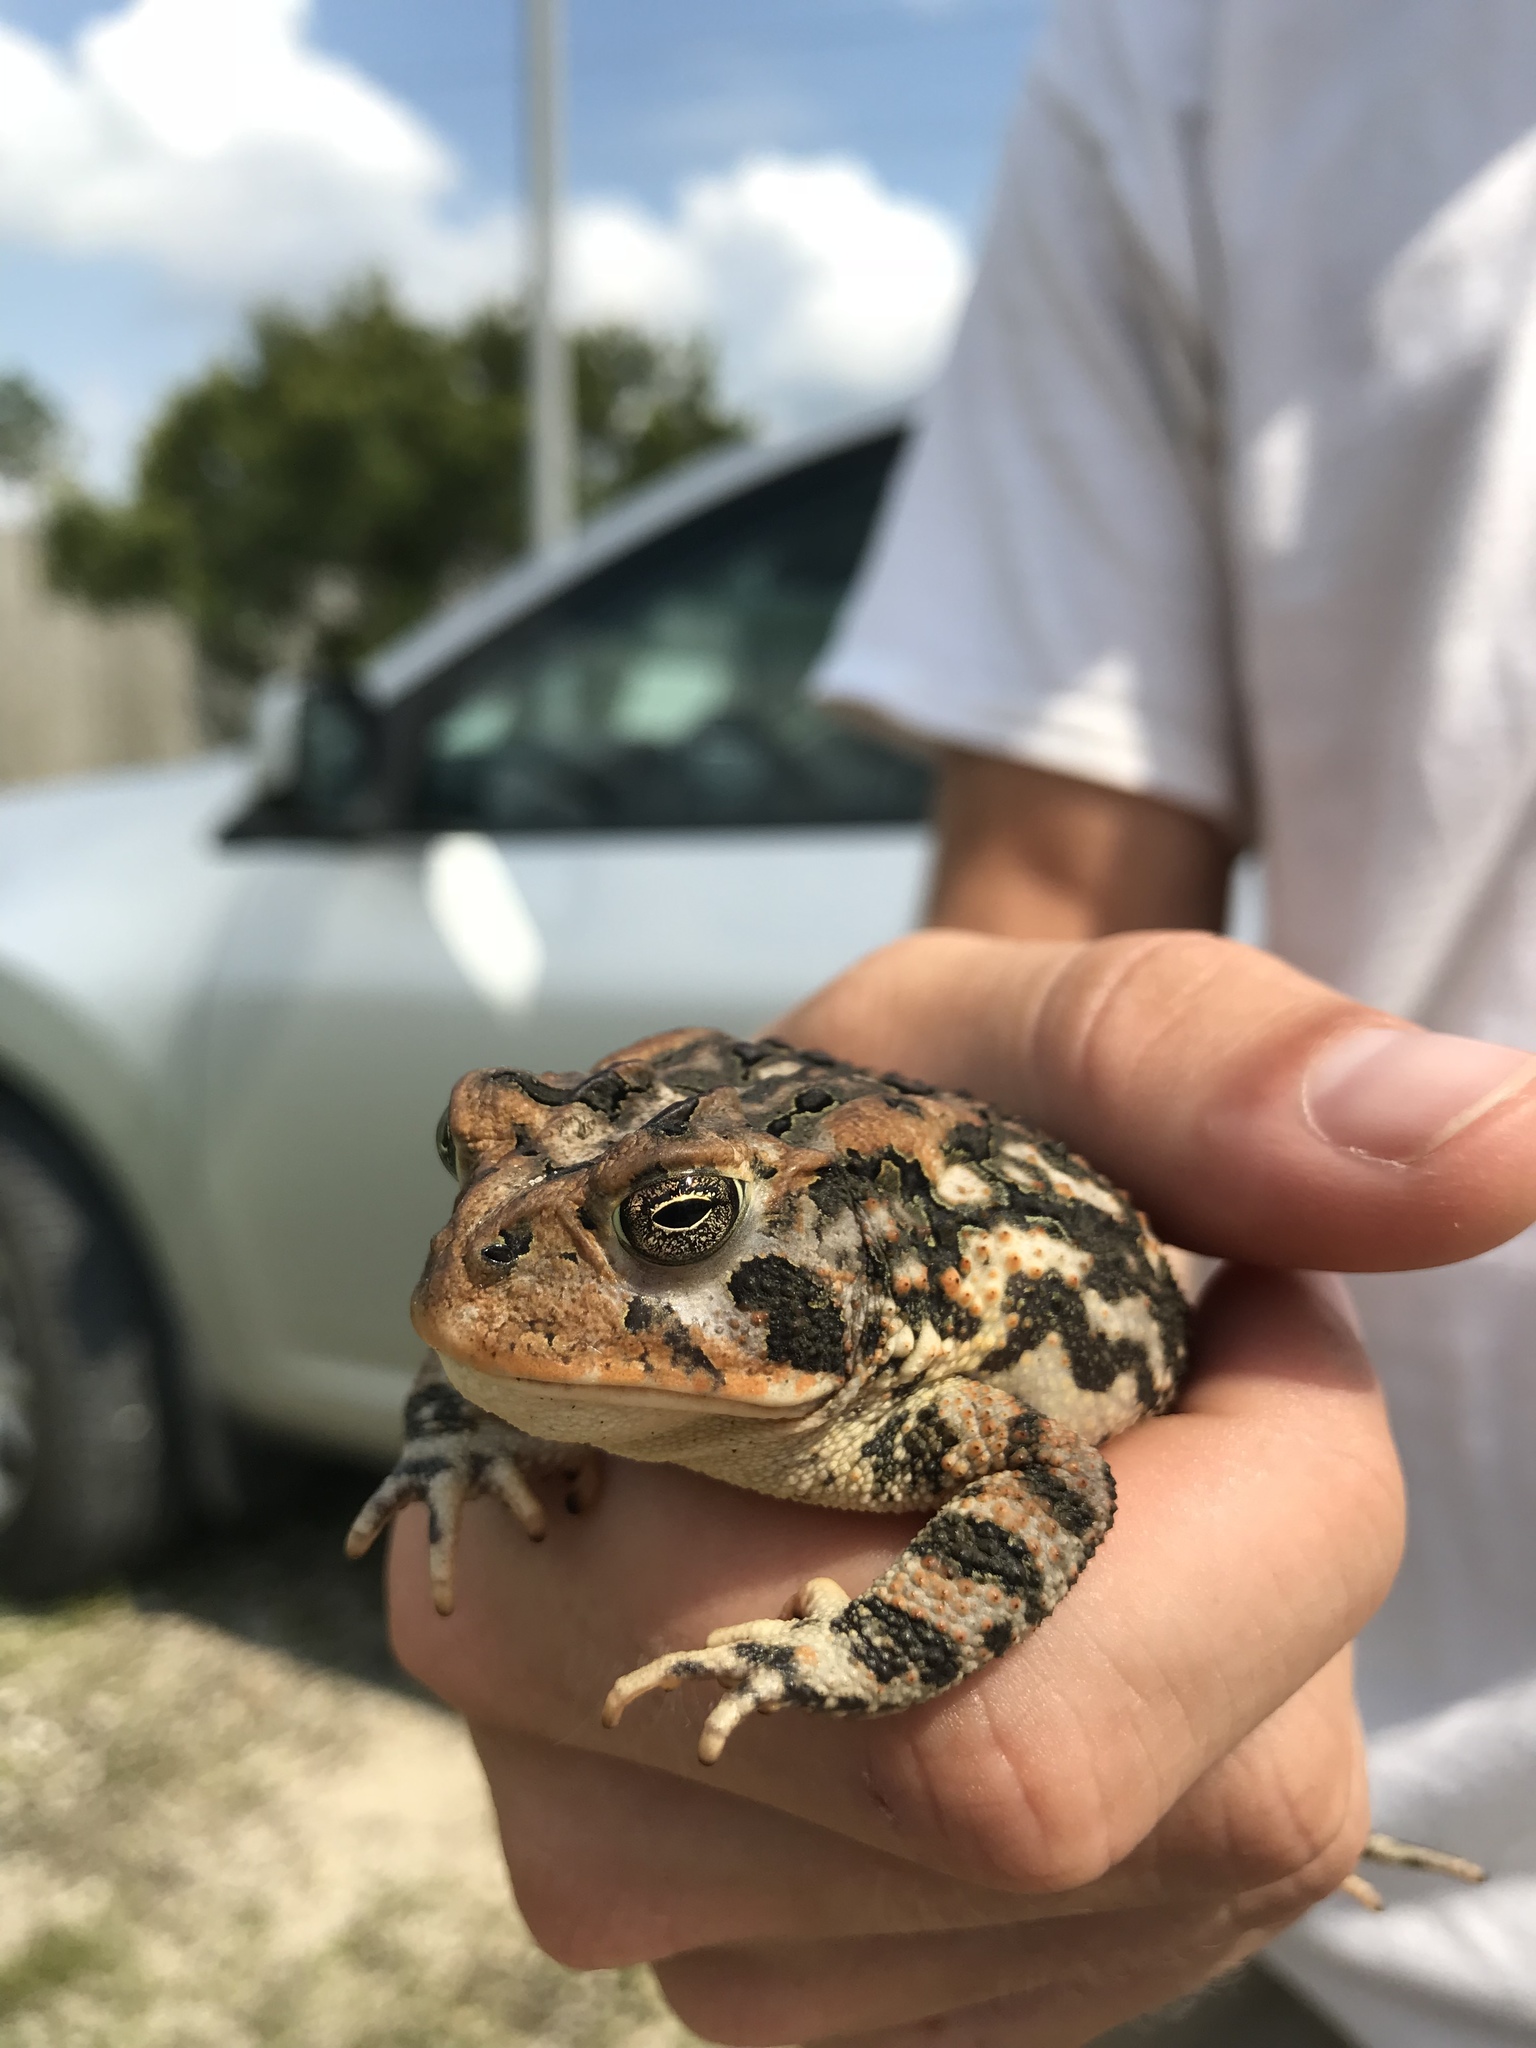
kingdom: Animalia
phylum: Chordata
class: Amphibia
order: Anura
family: Bufonidae
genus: Anaxyrus
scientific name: Anaxyrus terrestris
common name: Southern toad
